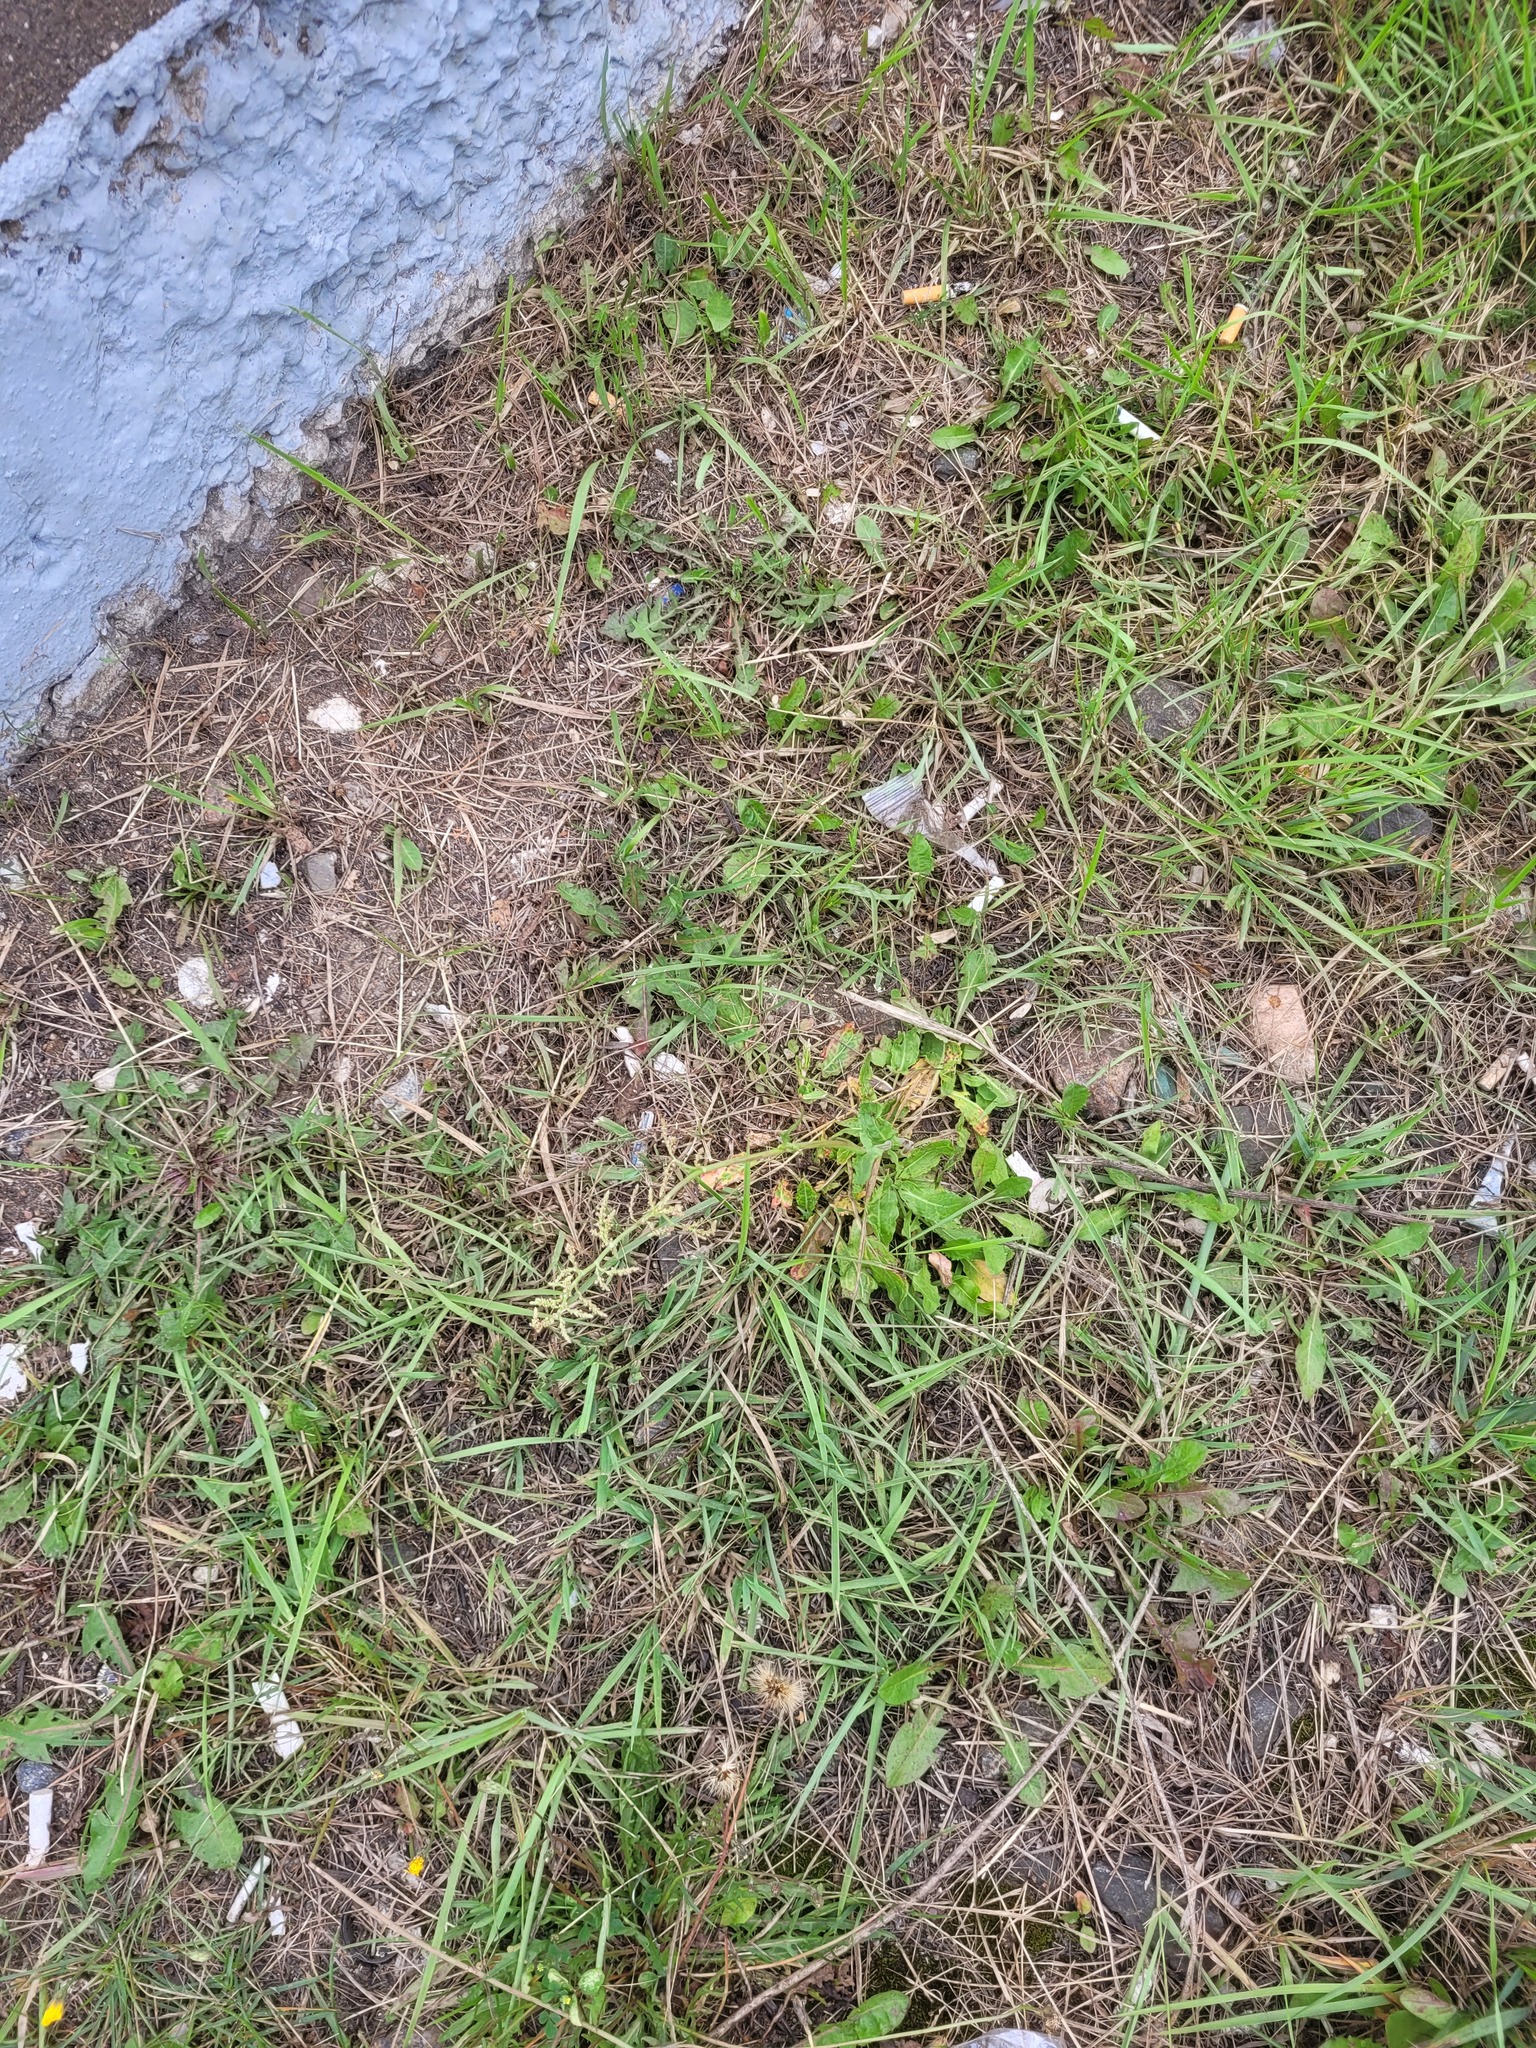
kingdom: Plantae
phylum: Tracheophyta
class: Magnoliopsida
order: Caryophyllales
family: Polygonaceae
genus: Rumex
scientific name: Rumex thyrsiflorus
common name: Garden sorrel
